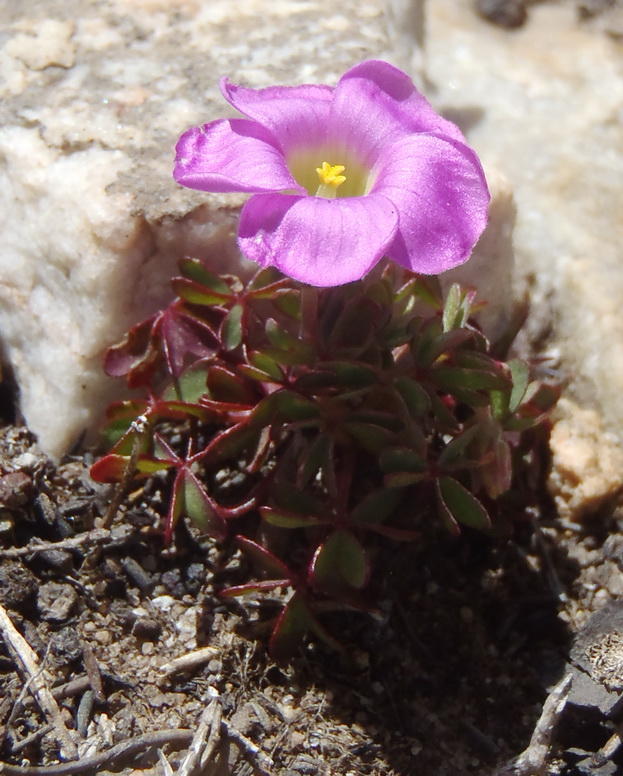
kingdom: Plantae
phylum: Tracheophyta
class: Magnoliopsida
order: Oxalidales
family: Oxalidaceae
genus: Oxalis
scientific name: Oxalis heterophylla
